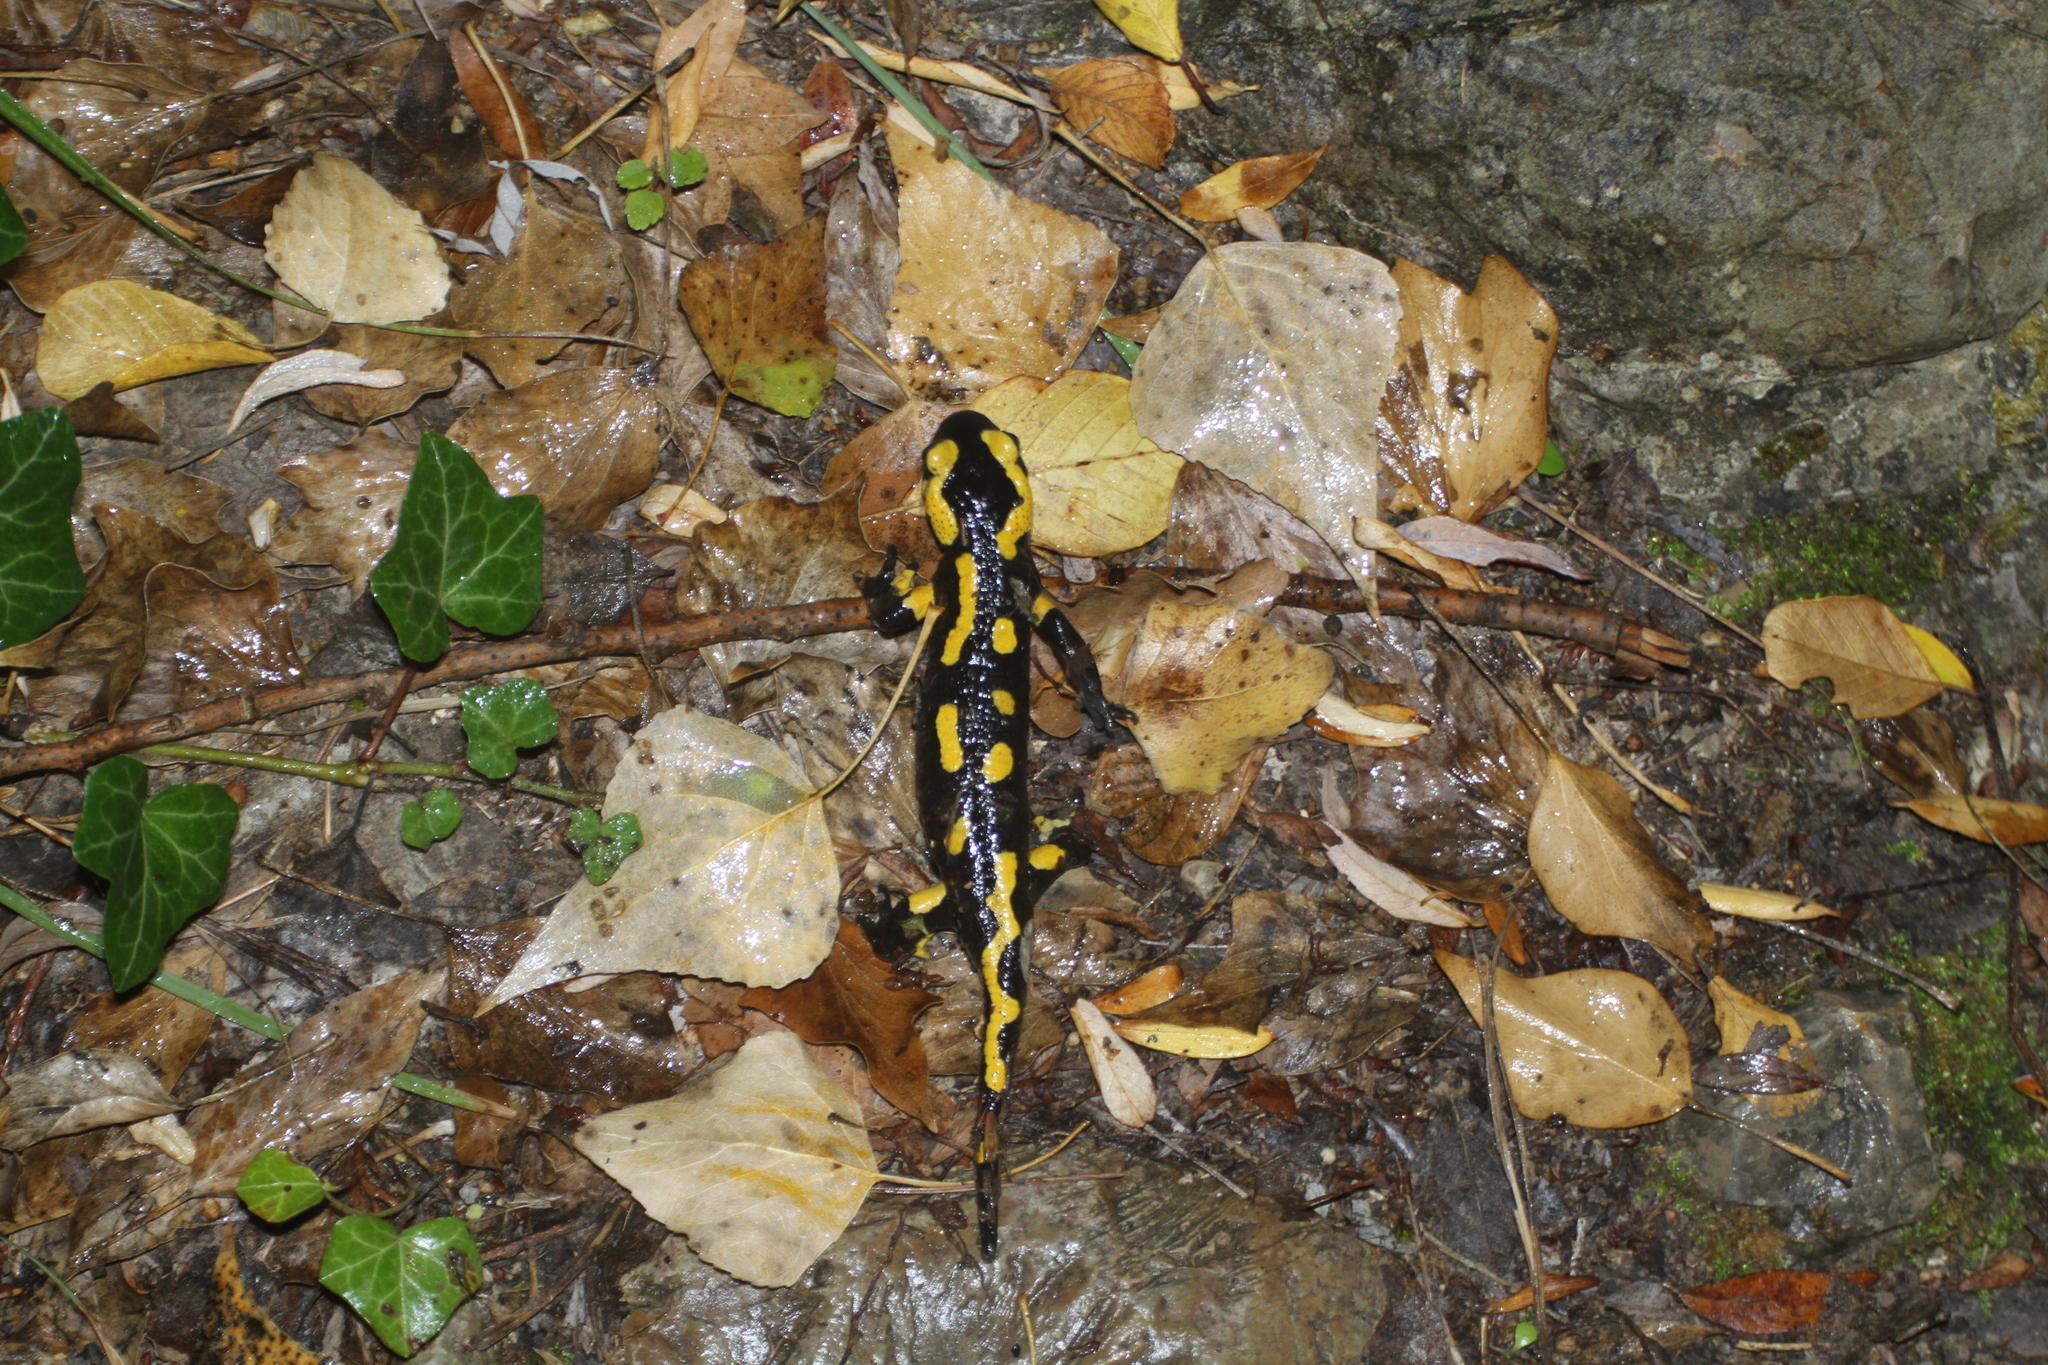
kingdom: Animalia
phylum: Chordata
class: Amphibia
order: Caudata
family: Salamandridae
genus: Salamandra
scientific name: Salamandra salamandra
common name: Fire salamander
